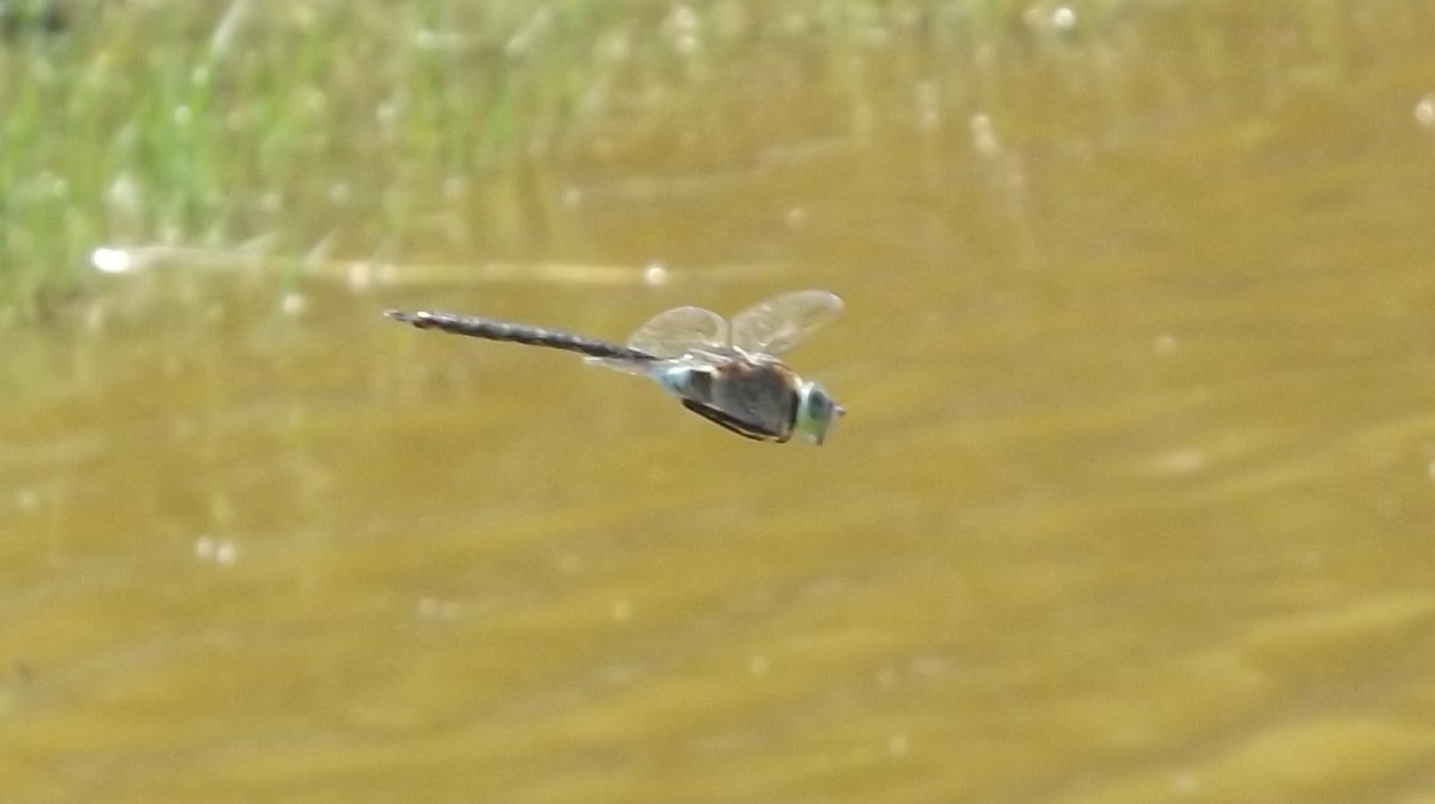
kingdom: Animalia
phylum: Arthropoda
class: Insecta
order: Odonata
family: Aeshnidae
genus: Anax
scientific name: Anax parthenope
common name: Lesser emperor
